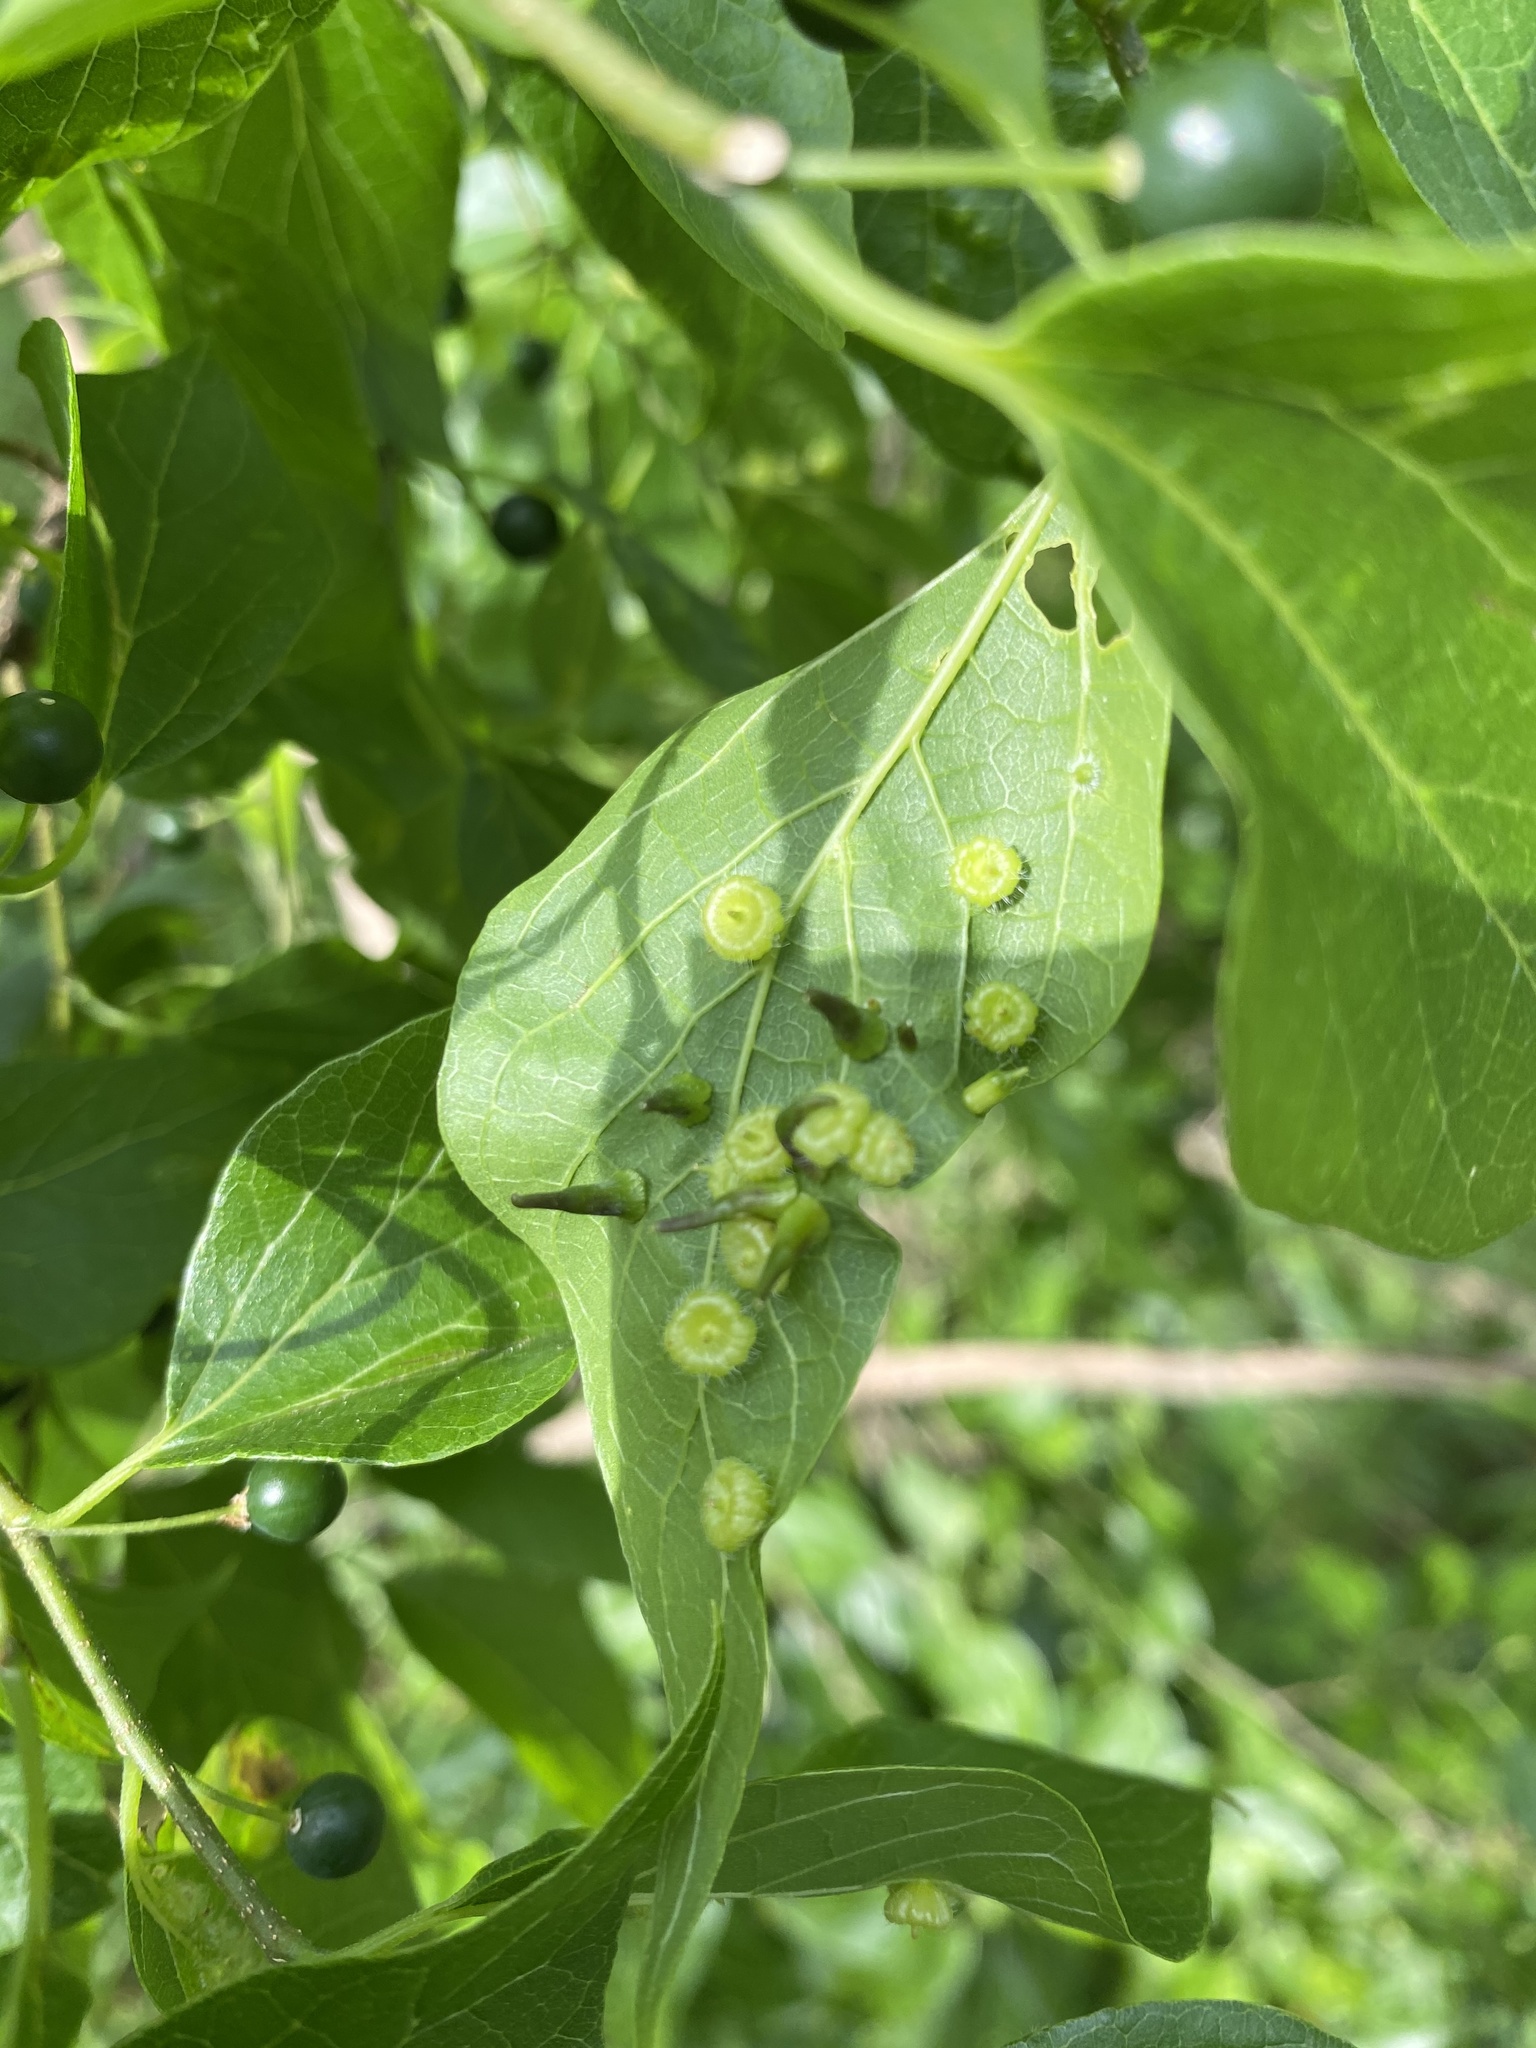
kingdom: Animalia
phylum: Arthropoda
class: Insecta
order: Diptera
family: Cecidomyiidae
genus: Celticecis
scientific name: Celticecis subulata
